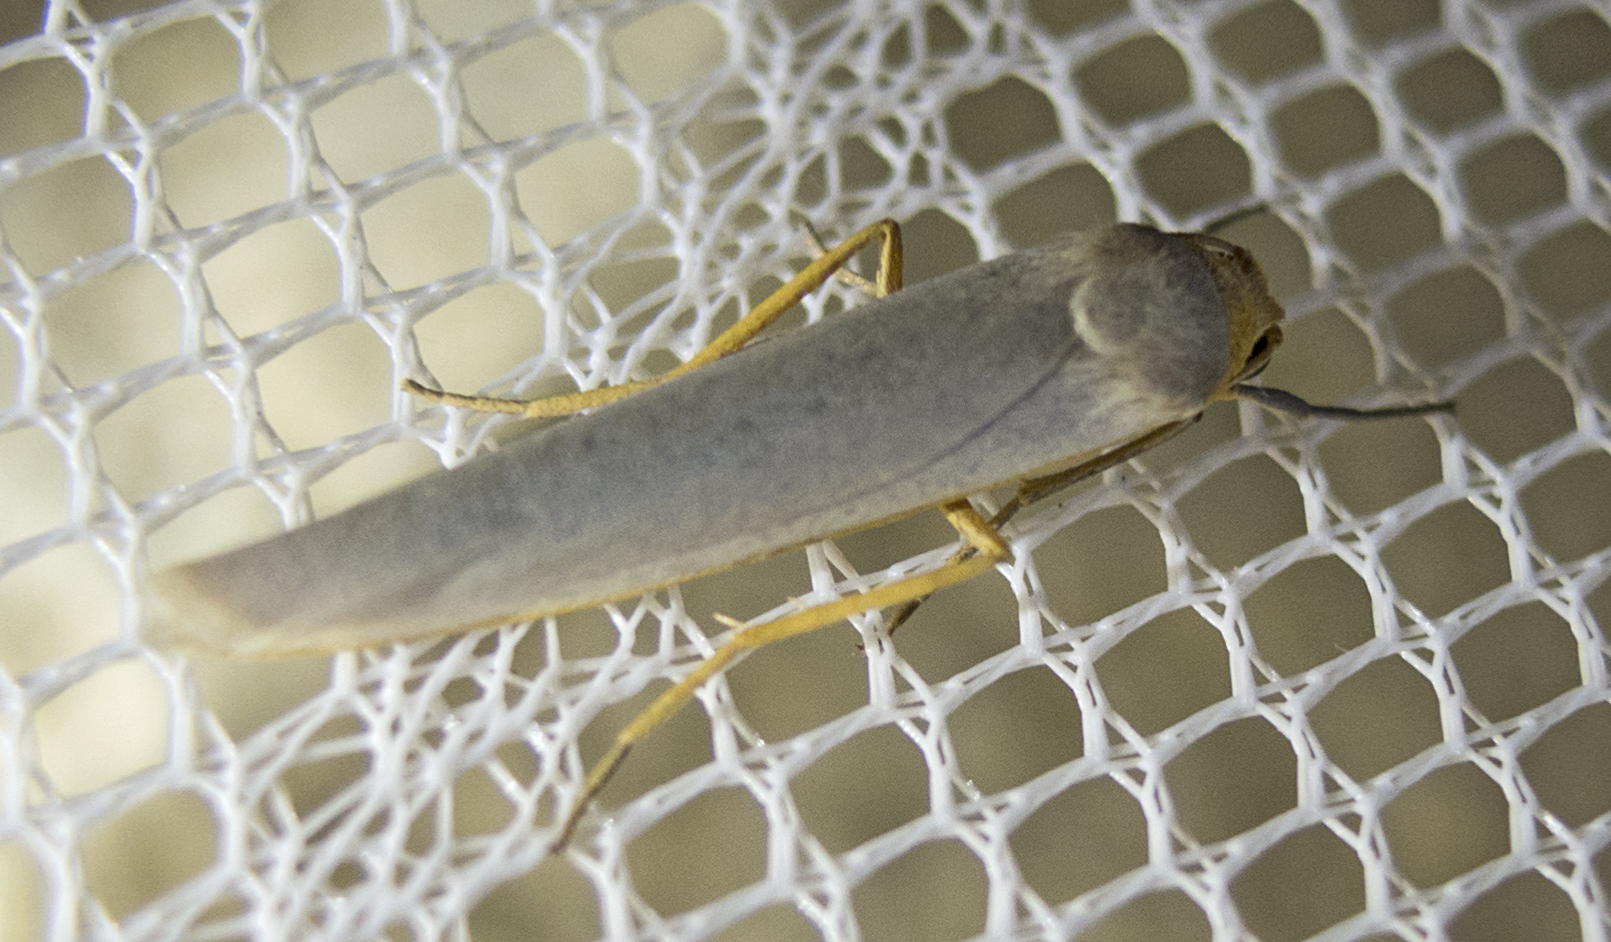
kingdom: Animalia
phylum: Arthropoda
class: Insecta
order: Lepidoptera
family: Erebidae
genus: Eilema
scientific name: Eilema
